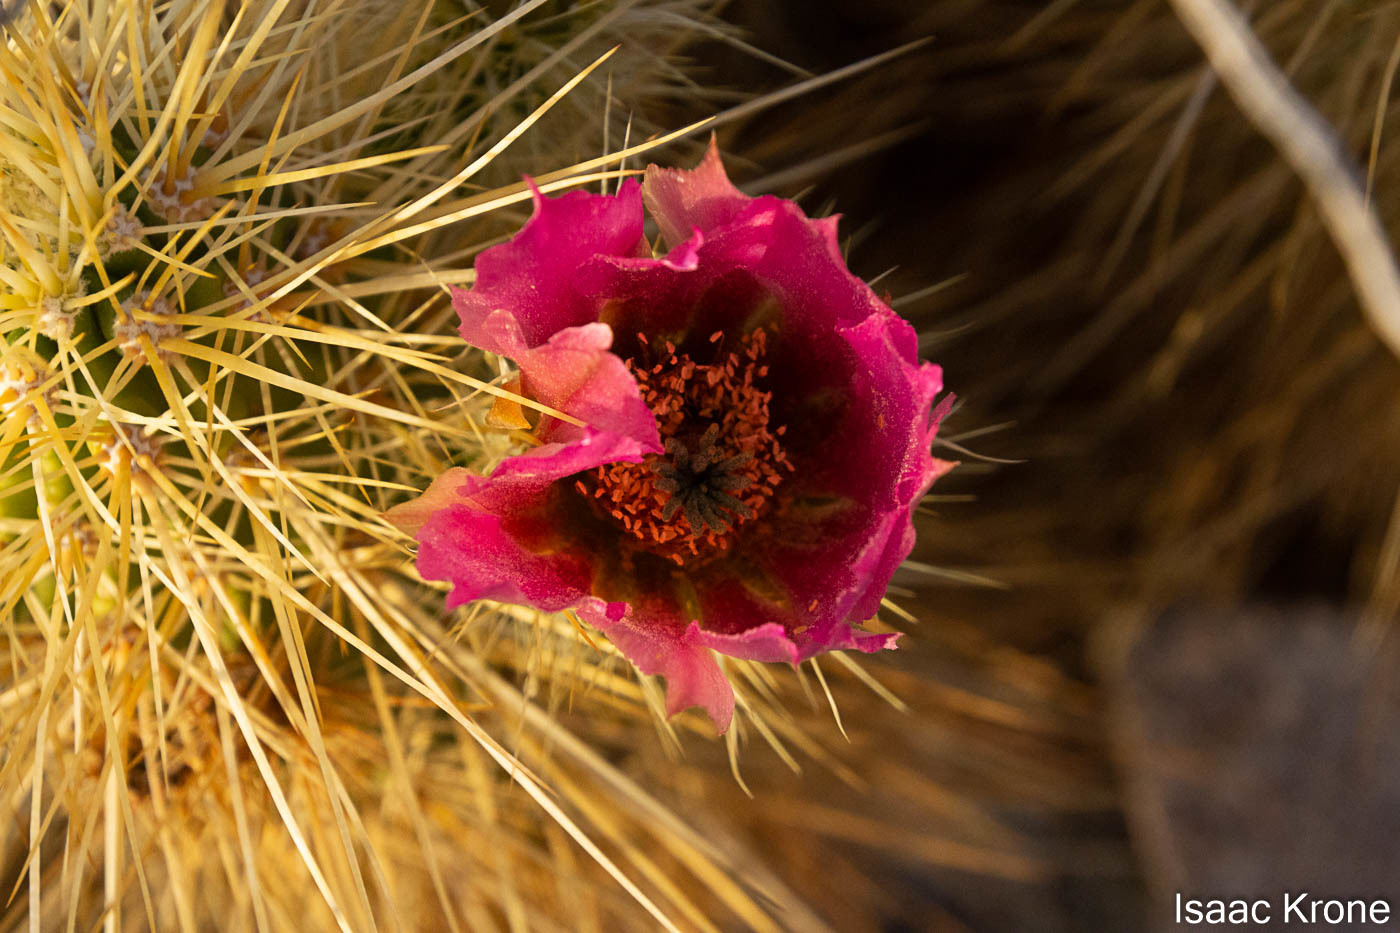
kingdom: Plantae
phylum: Tracheophyta
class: Magnoliopsida
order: Caryophyllales
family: Cactaceae
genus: Echinocereus
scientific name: Echinocereus nicholii
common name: Nichol's hedgehog cactus
